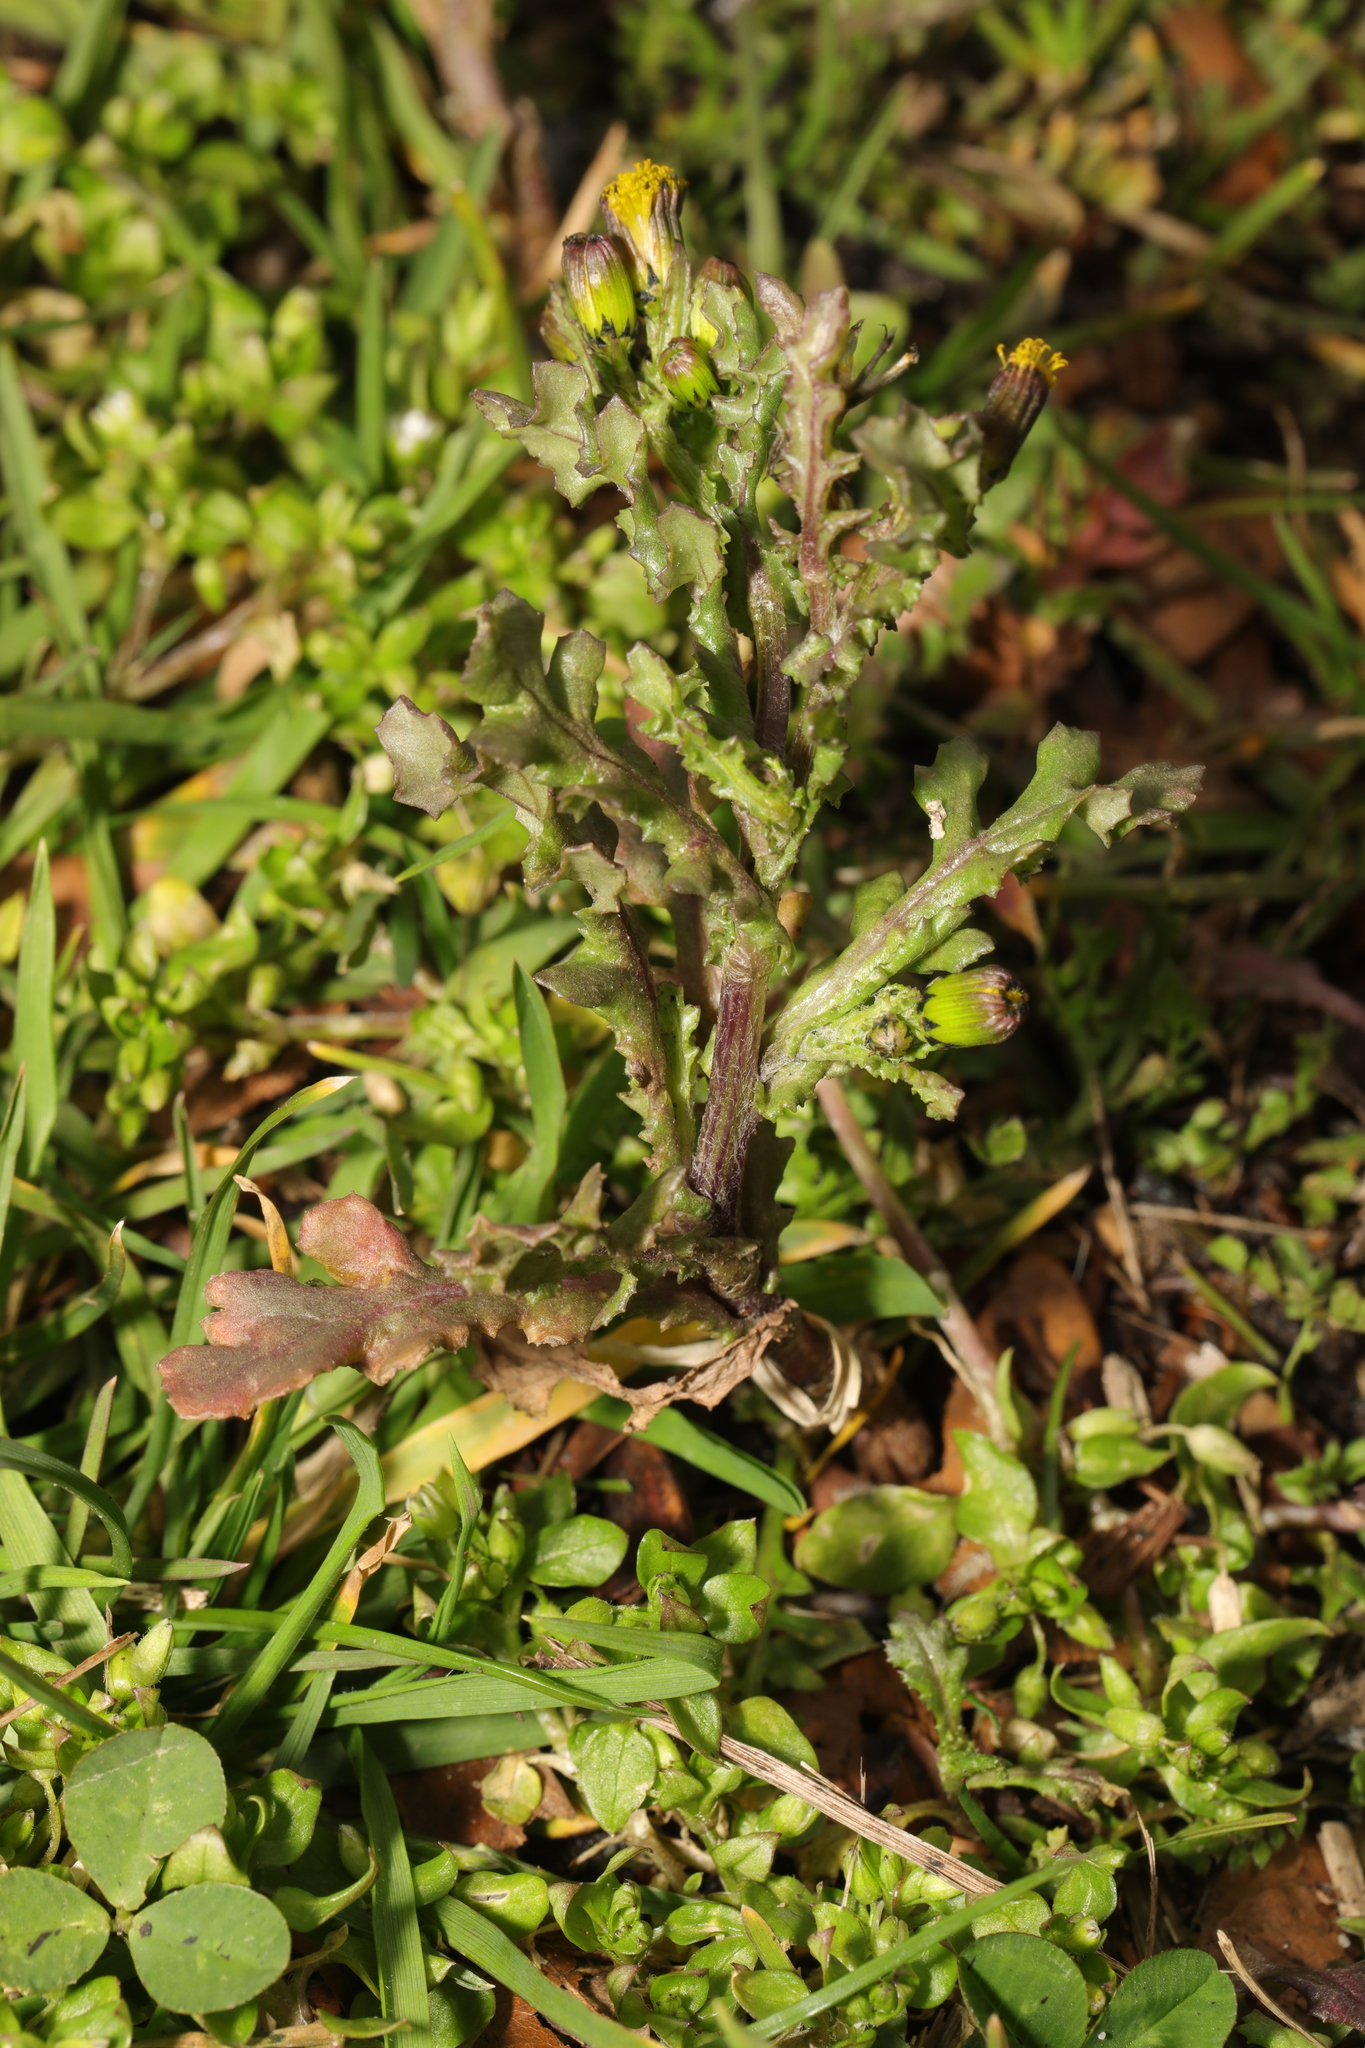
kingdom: Plantae
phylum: Tracheophyta
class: Magnoliopsida
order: Asterales
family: Asteraceae
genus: Senecio
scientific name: Senecio vulgaris
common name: Old-man-in-the-spring
